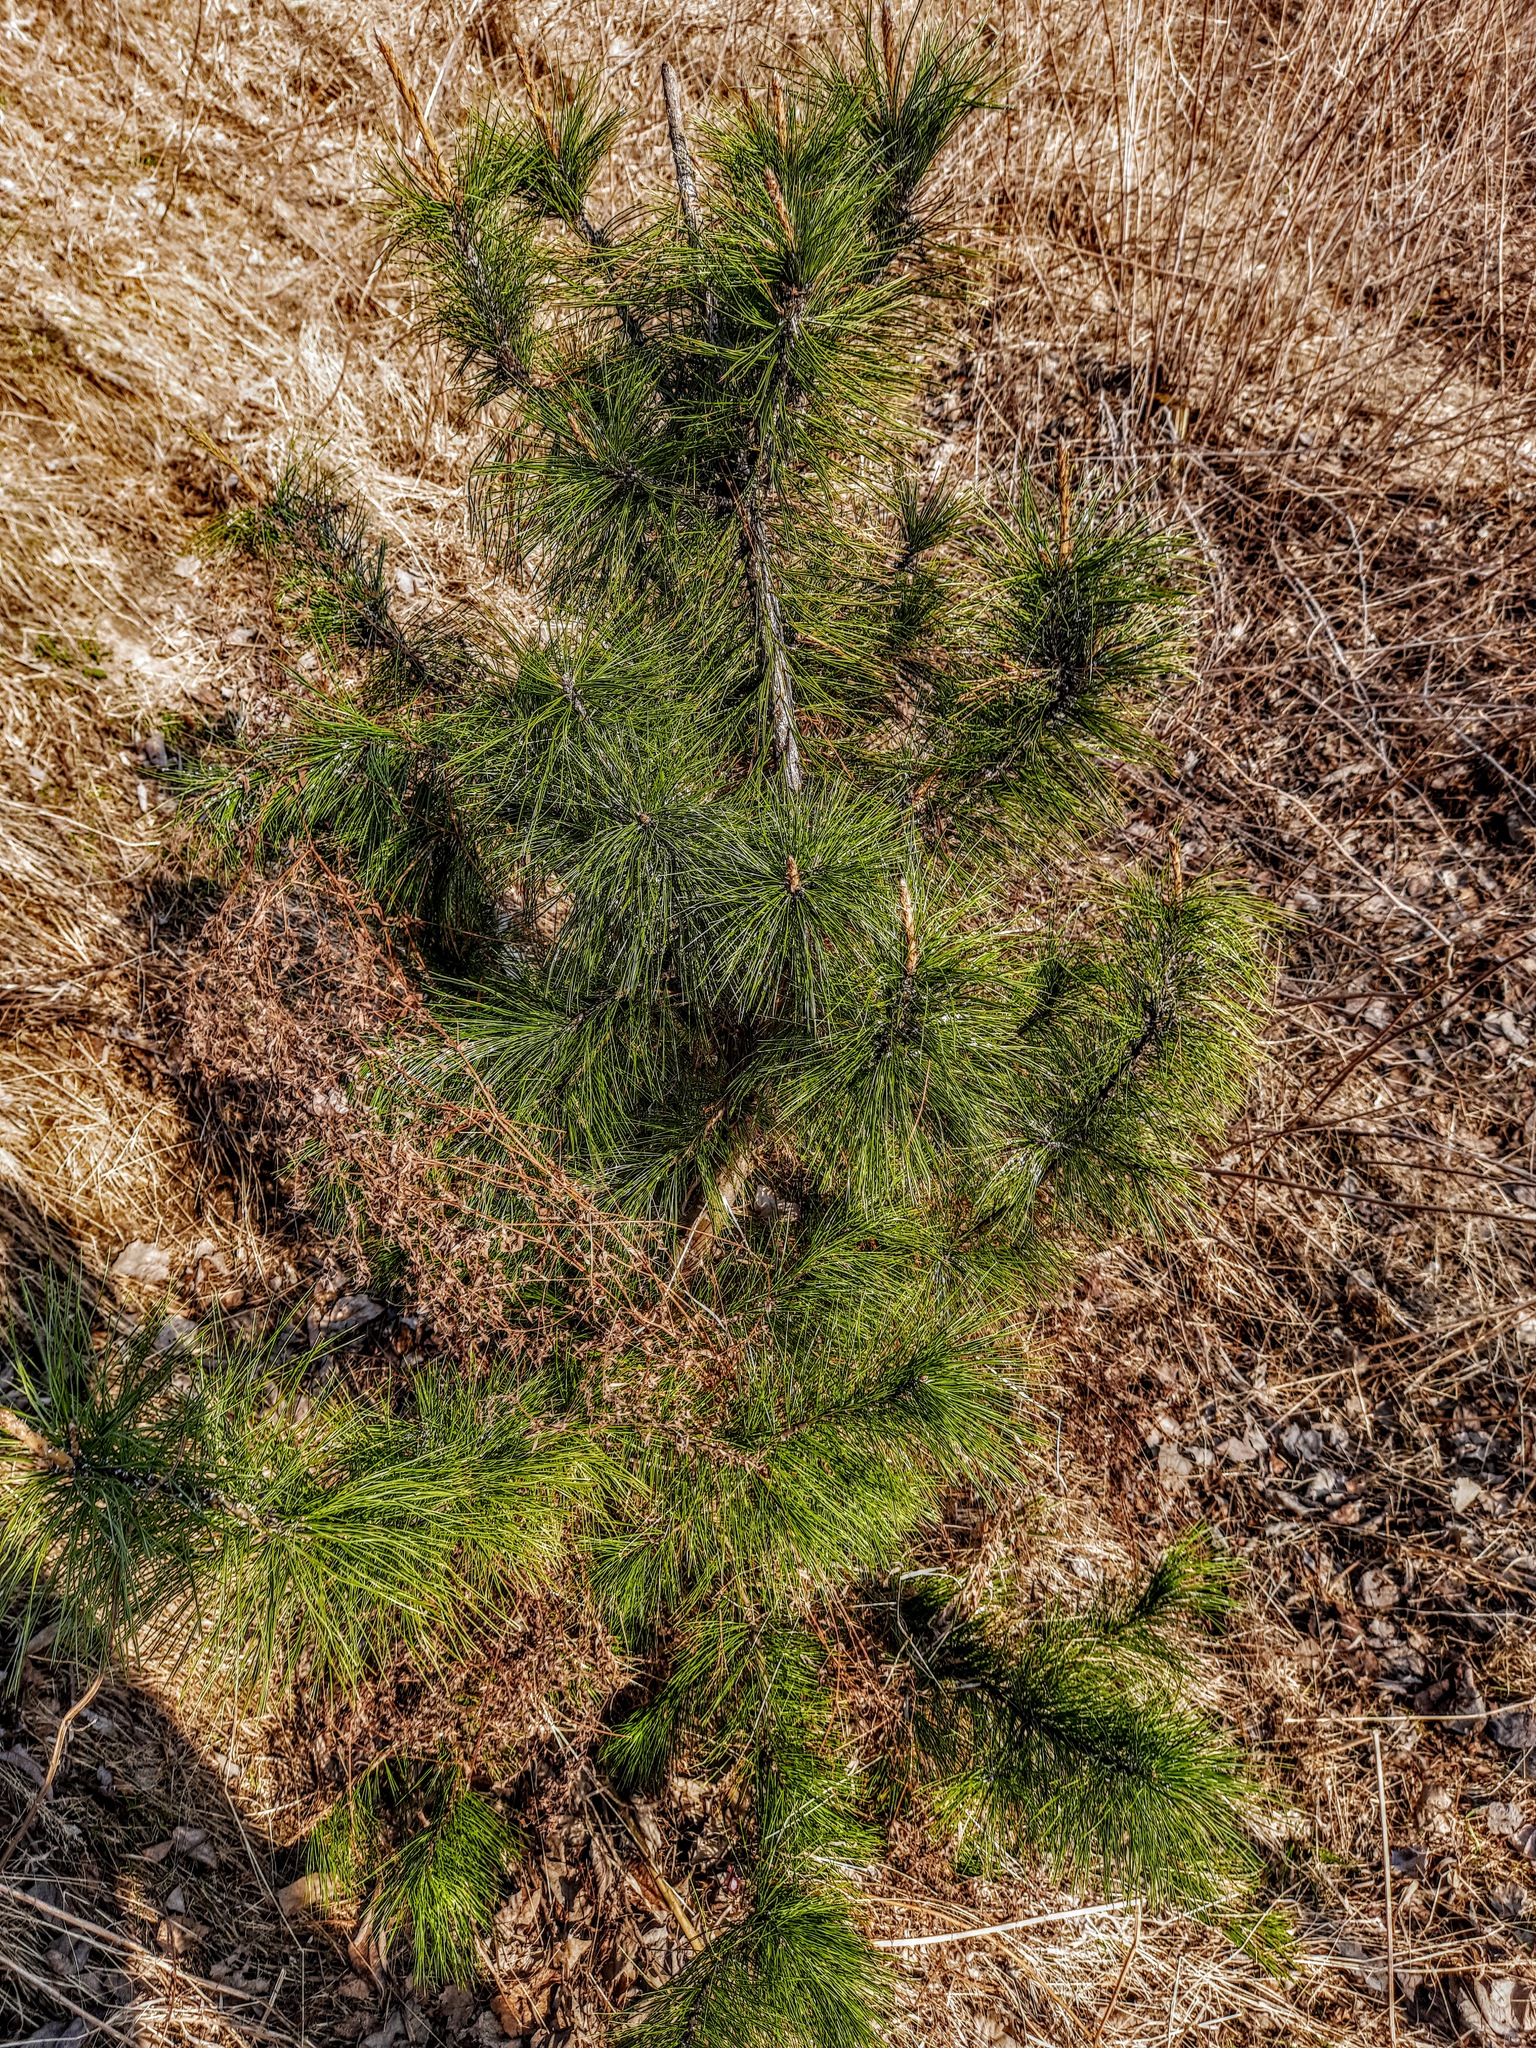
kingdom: Plantae
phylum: Tracheophyta
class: Pinopsida
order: Pinales
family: Pinaceae
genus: Pinus
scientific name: Pinus sibirica
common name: Siberian pine
